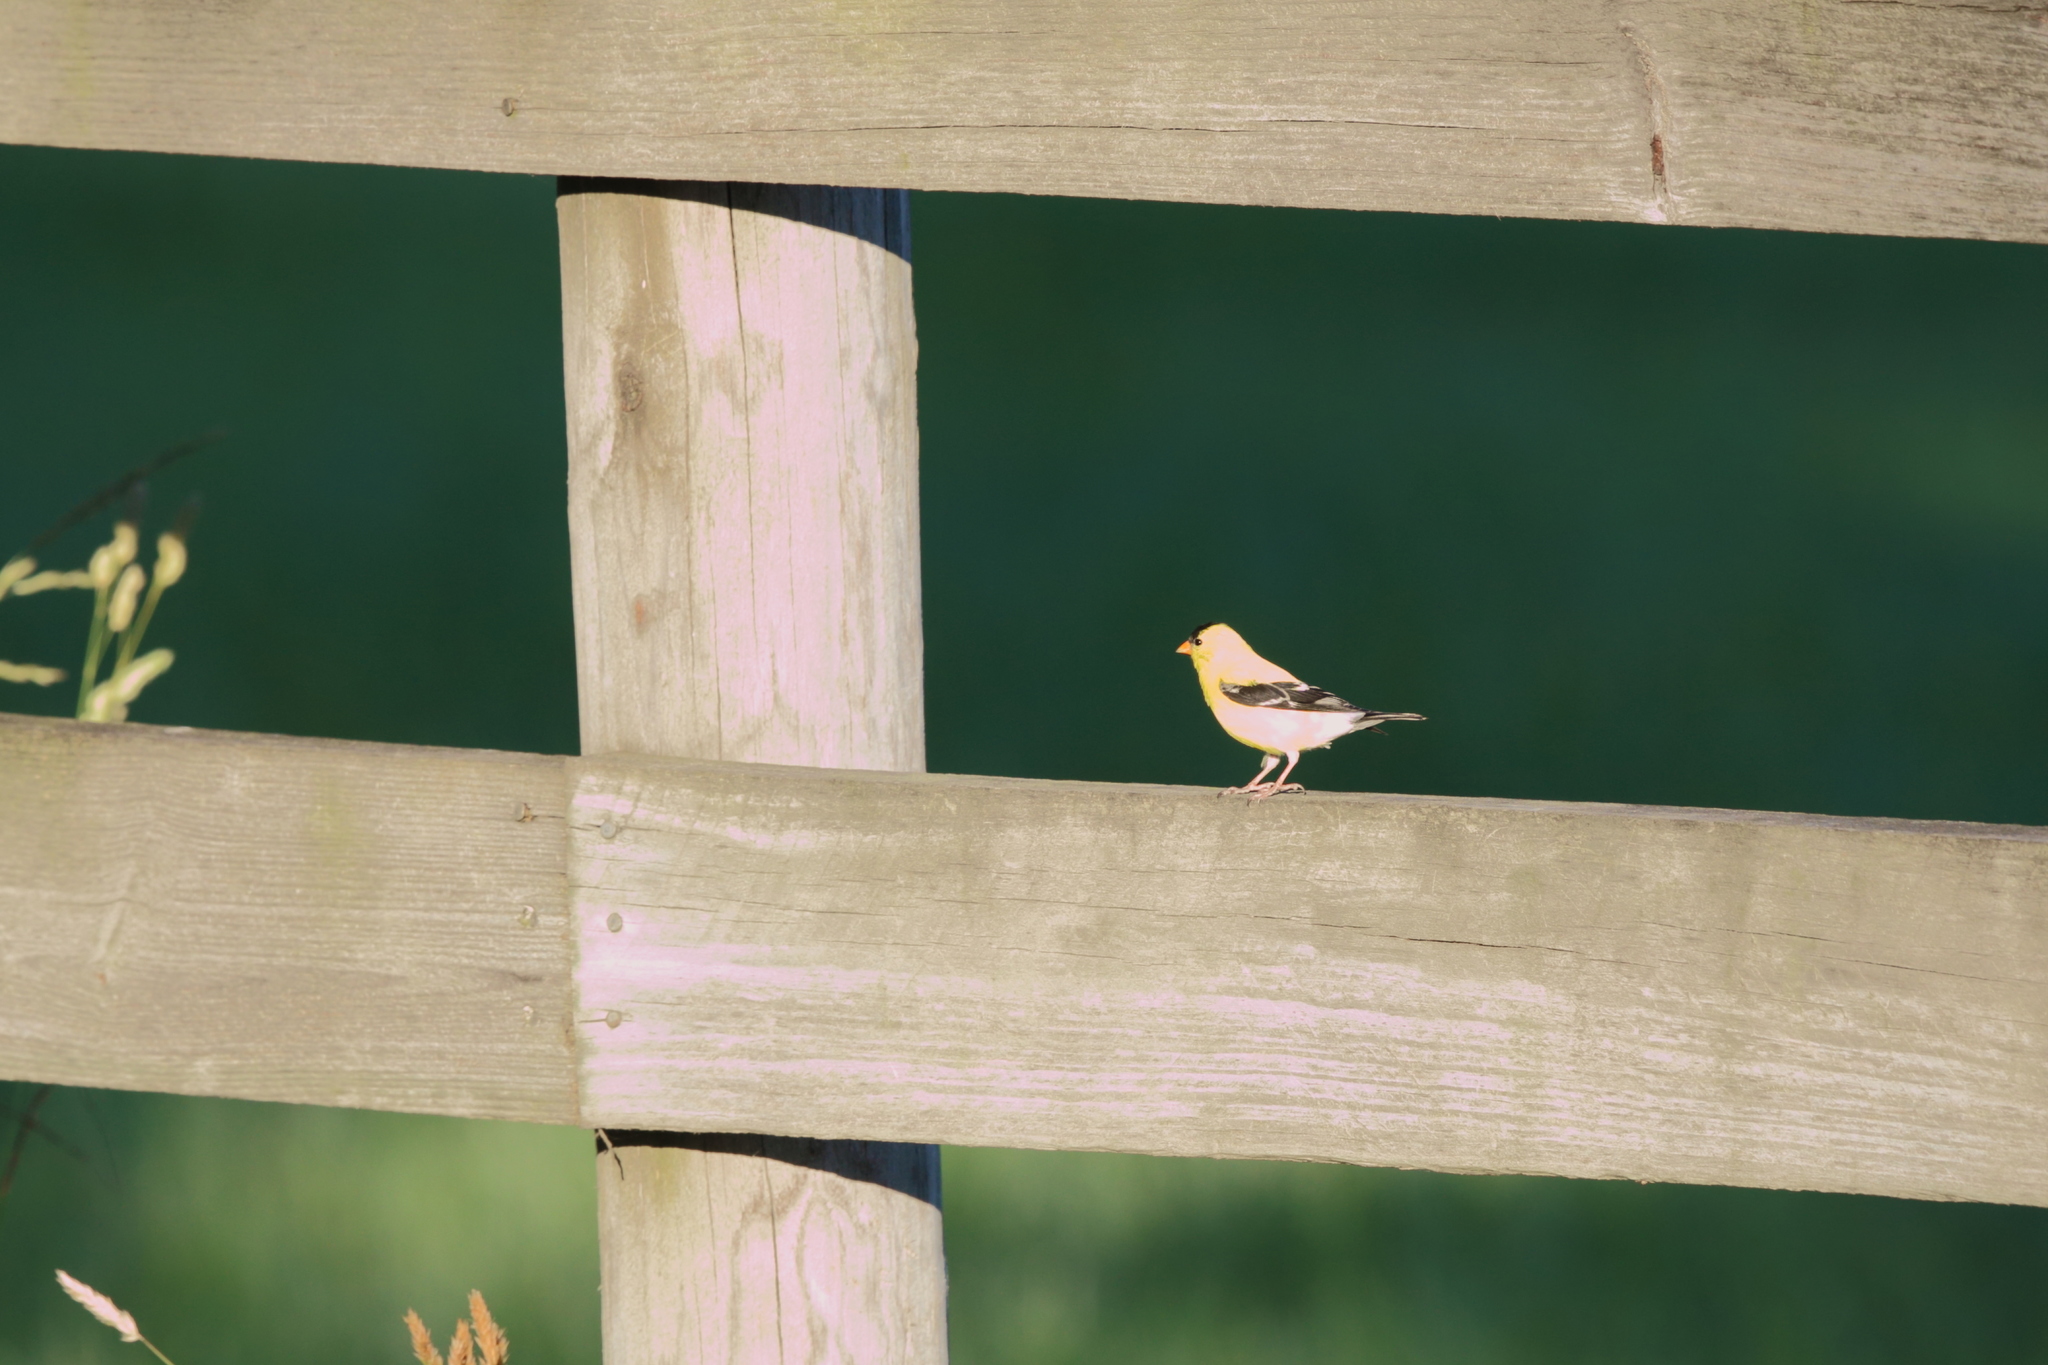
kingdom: Animalia
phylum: Chordata
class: Aves
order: Passeriformes
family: Fringillidae
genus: Spinus
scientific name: Spinus tristis
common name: American goldfinch
